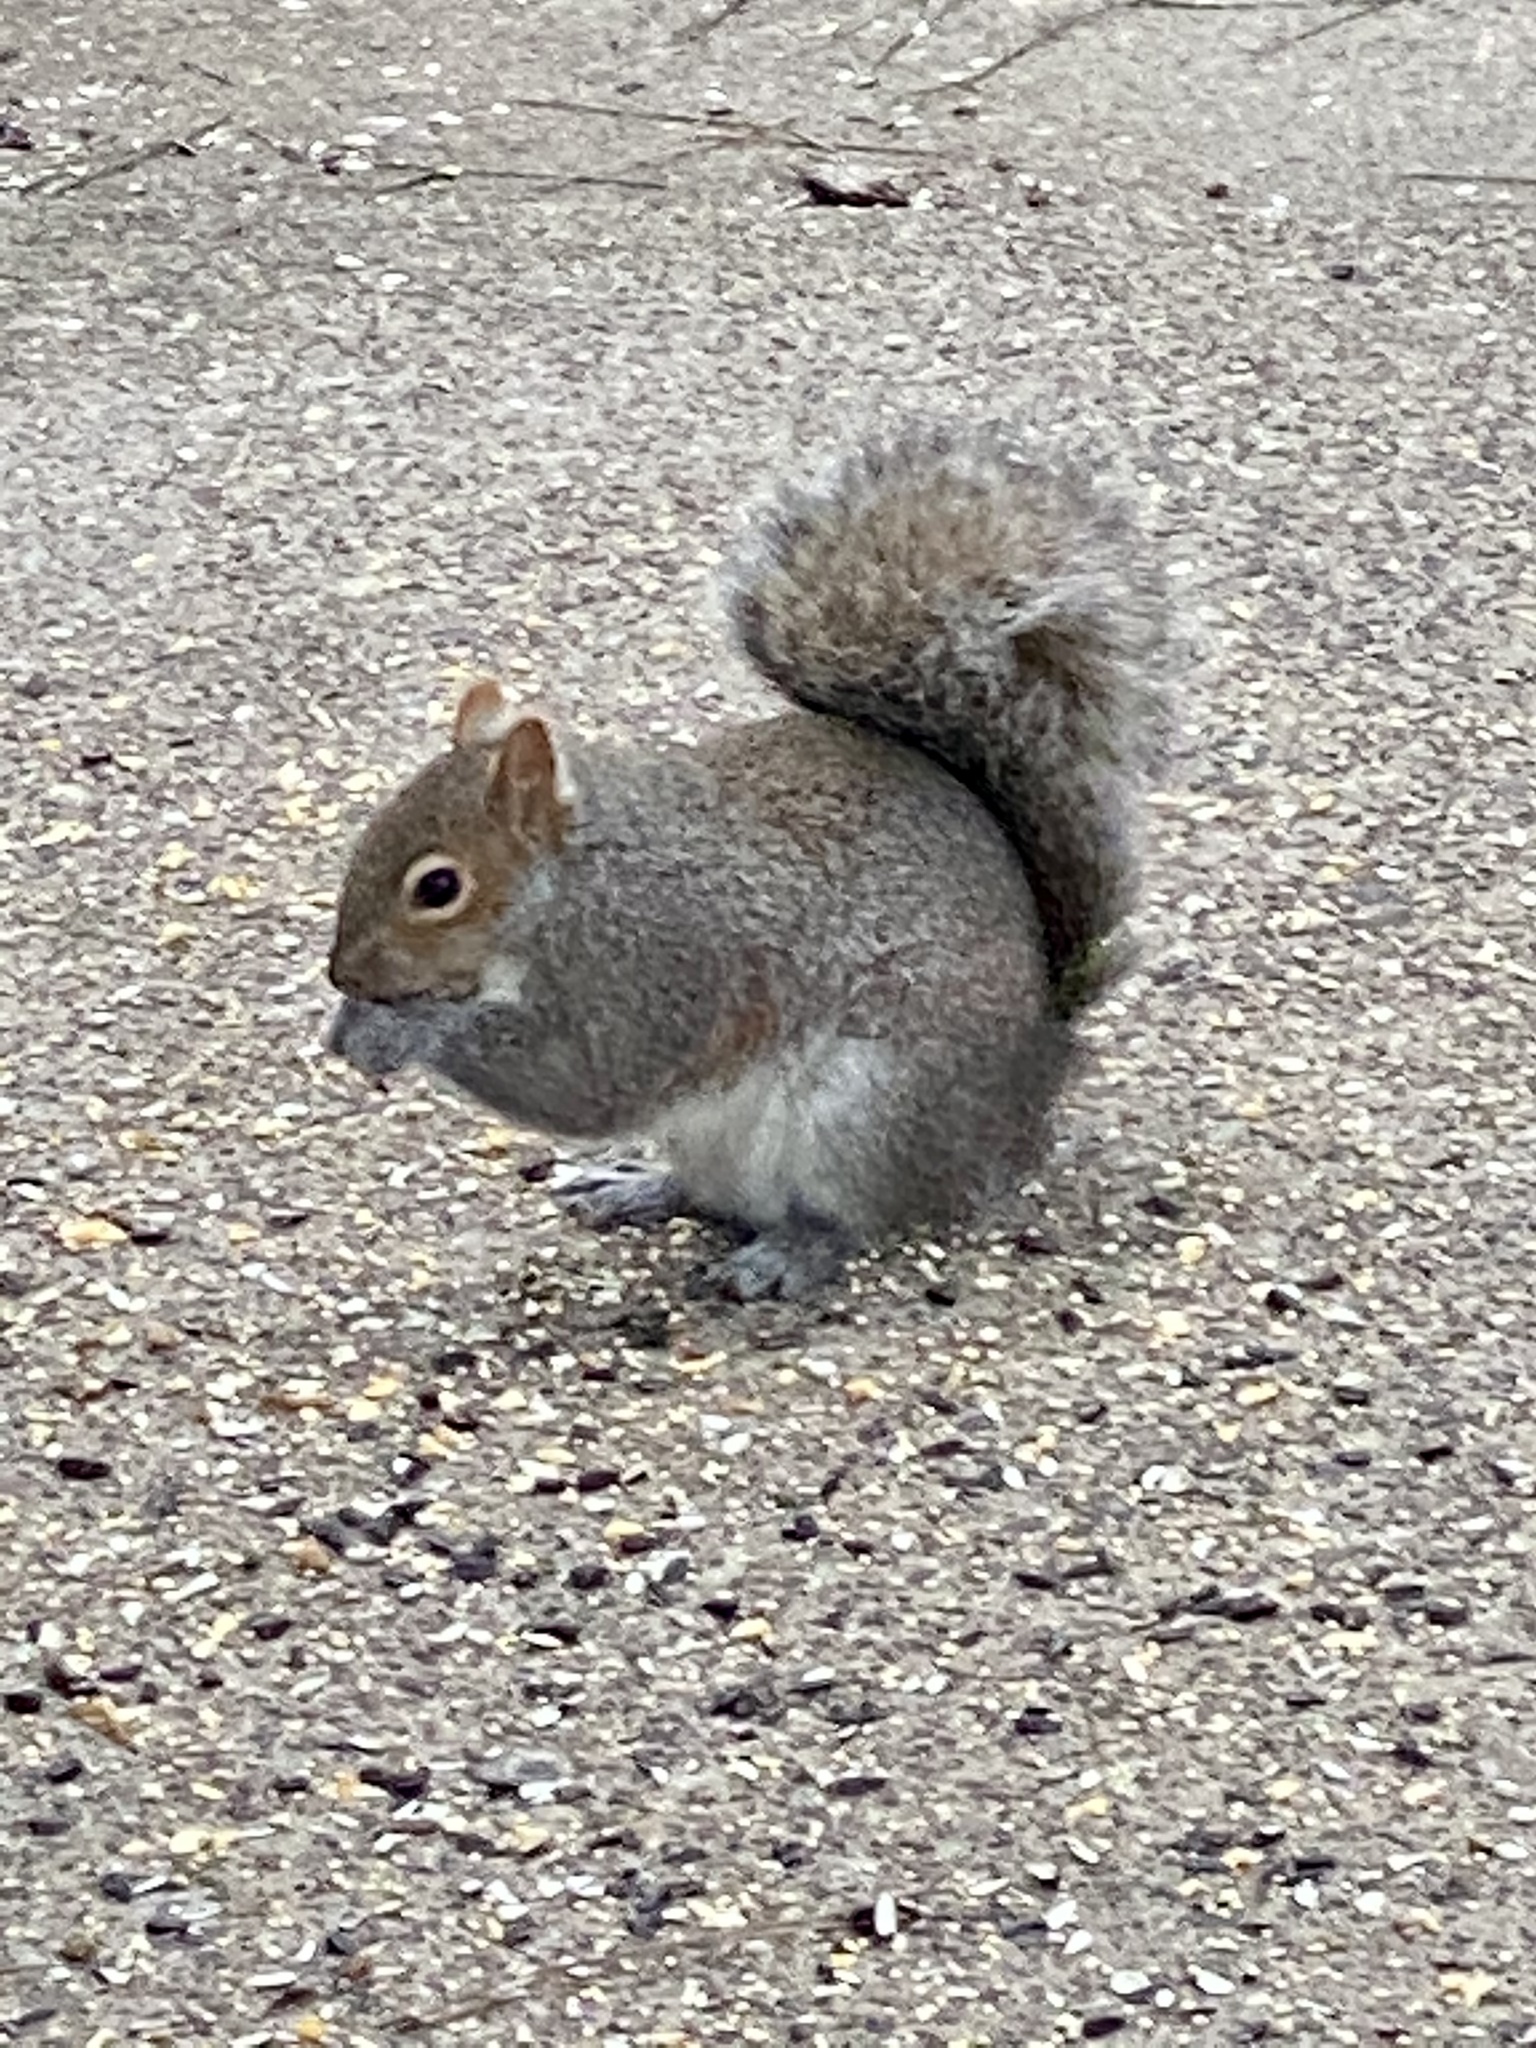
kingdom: Animalia
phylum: Chordata
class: Mammalia
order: Rodentia
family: Sciuridae
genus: Sciurus
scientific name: Sciurus carolinensis
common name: Eastern gray squirrel
